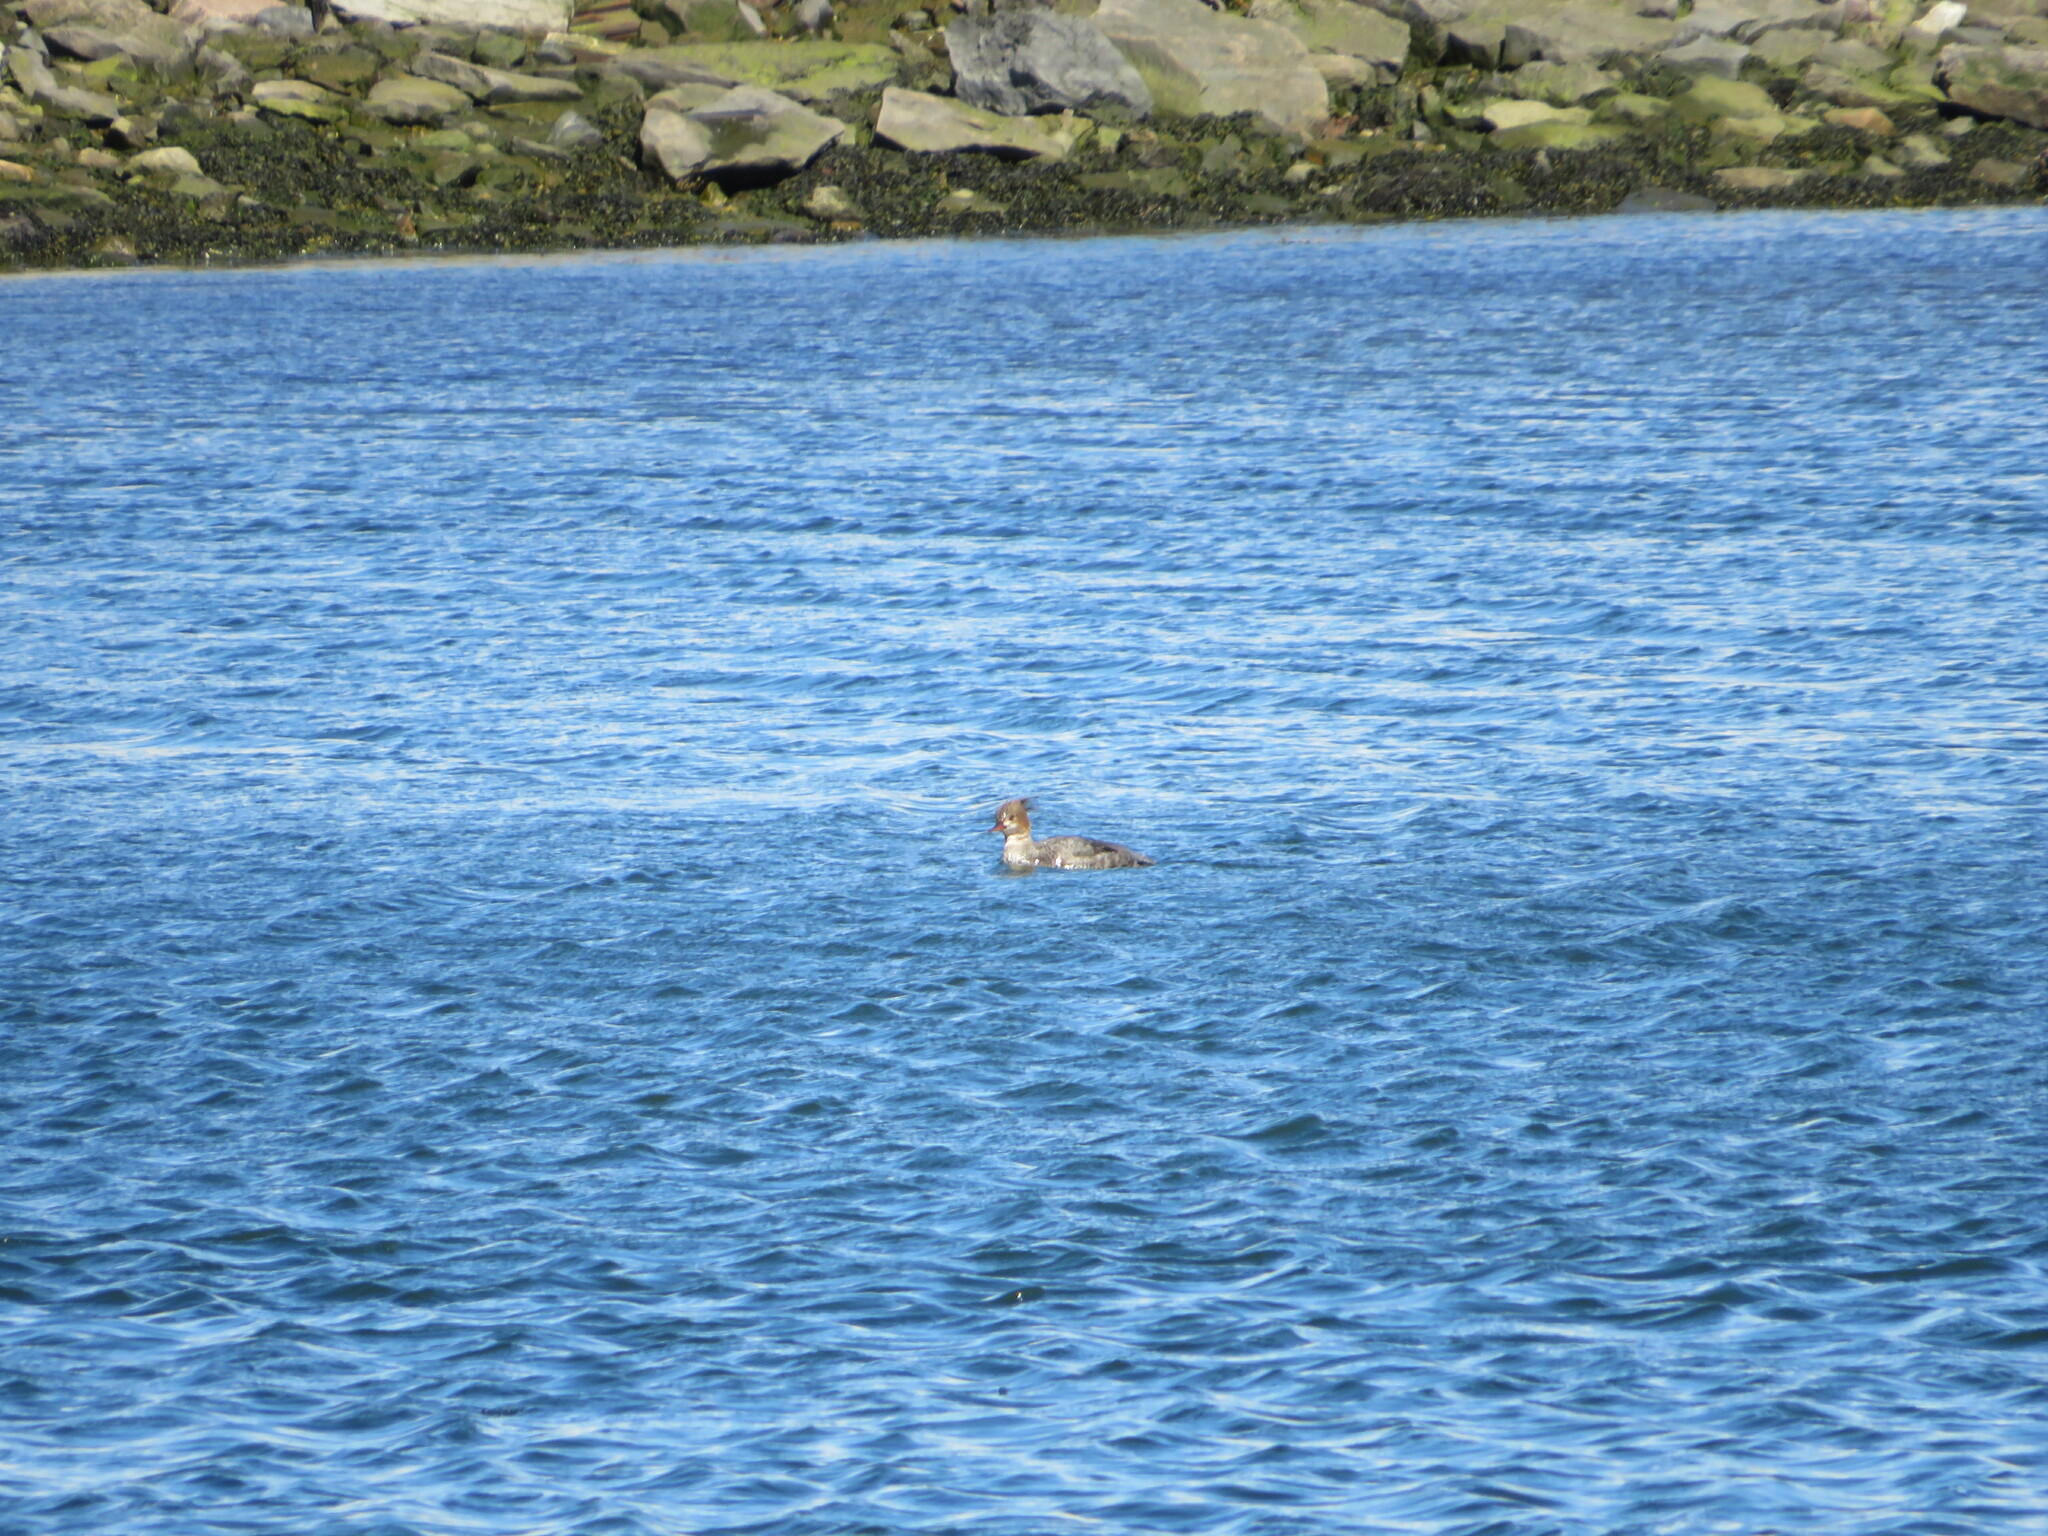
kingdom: Animalia
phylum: Chordata
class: Aves
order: Anseriformes
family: Anatidae
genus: Mergus
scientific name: Mergus serrator
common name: Red-breasted merganser
